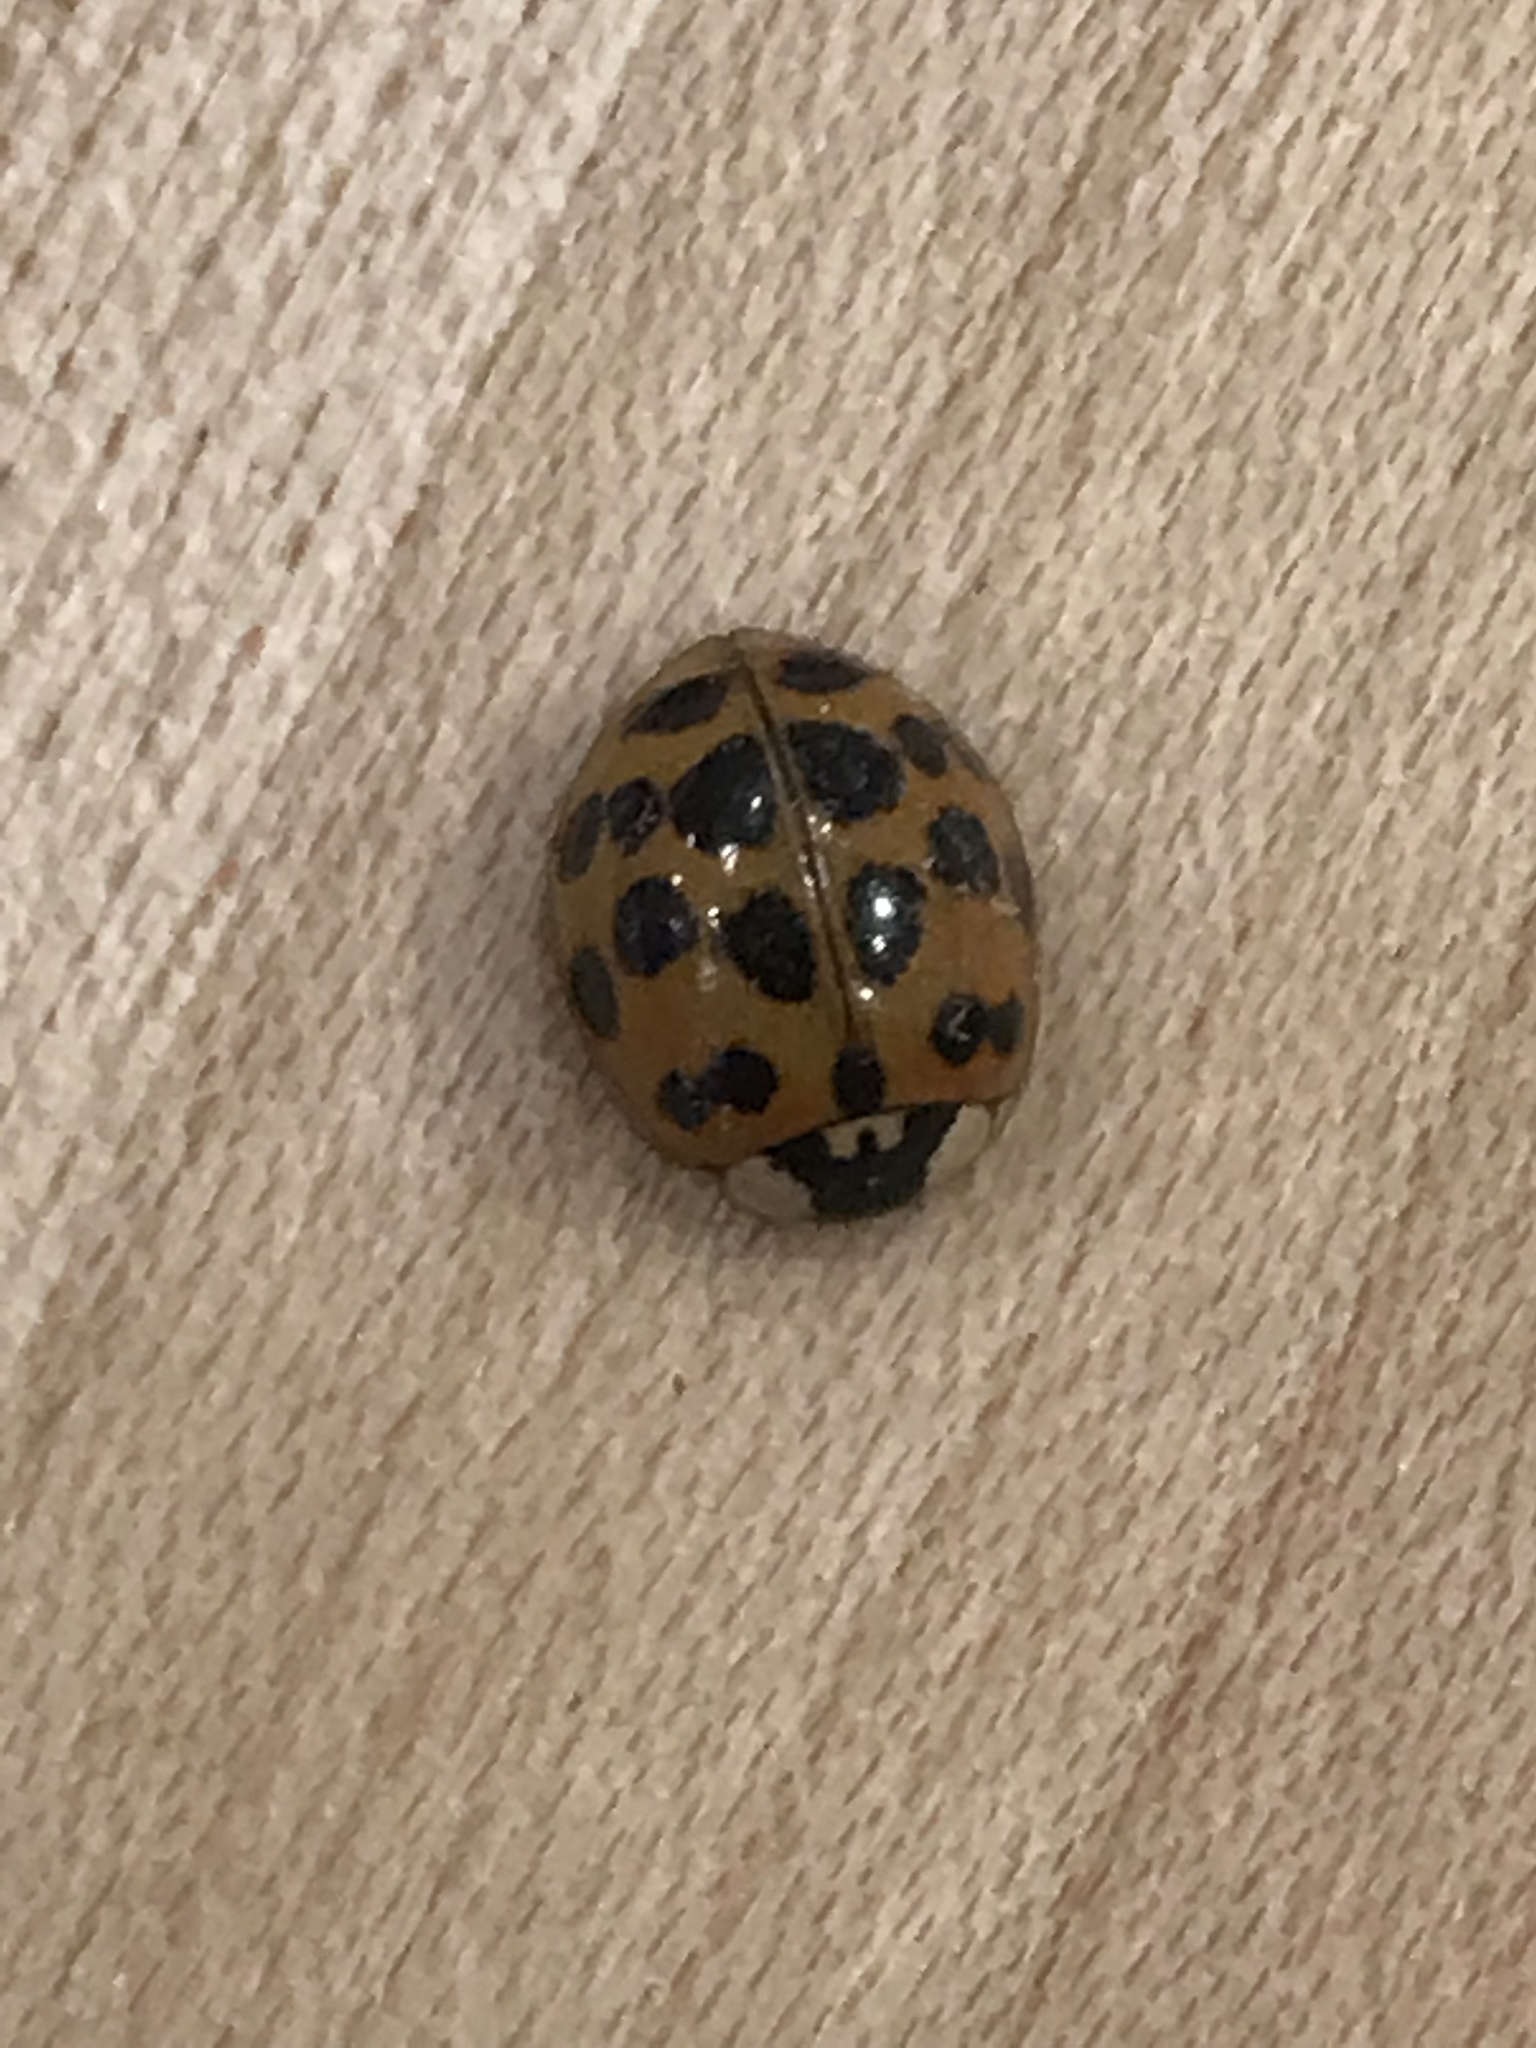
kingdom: Animalia
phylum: Arthropoda
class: Insecta
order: Coleoptera
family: Coccinellidae
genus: Harmonia
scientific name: Harmonia axyridis
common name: Harlequin ladybird
